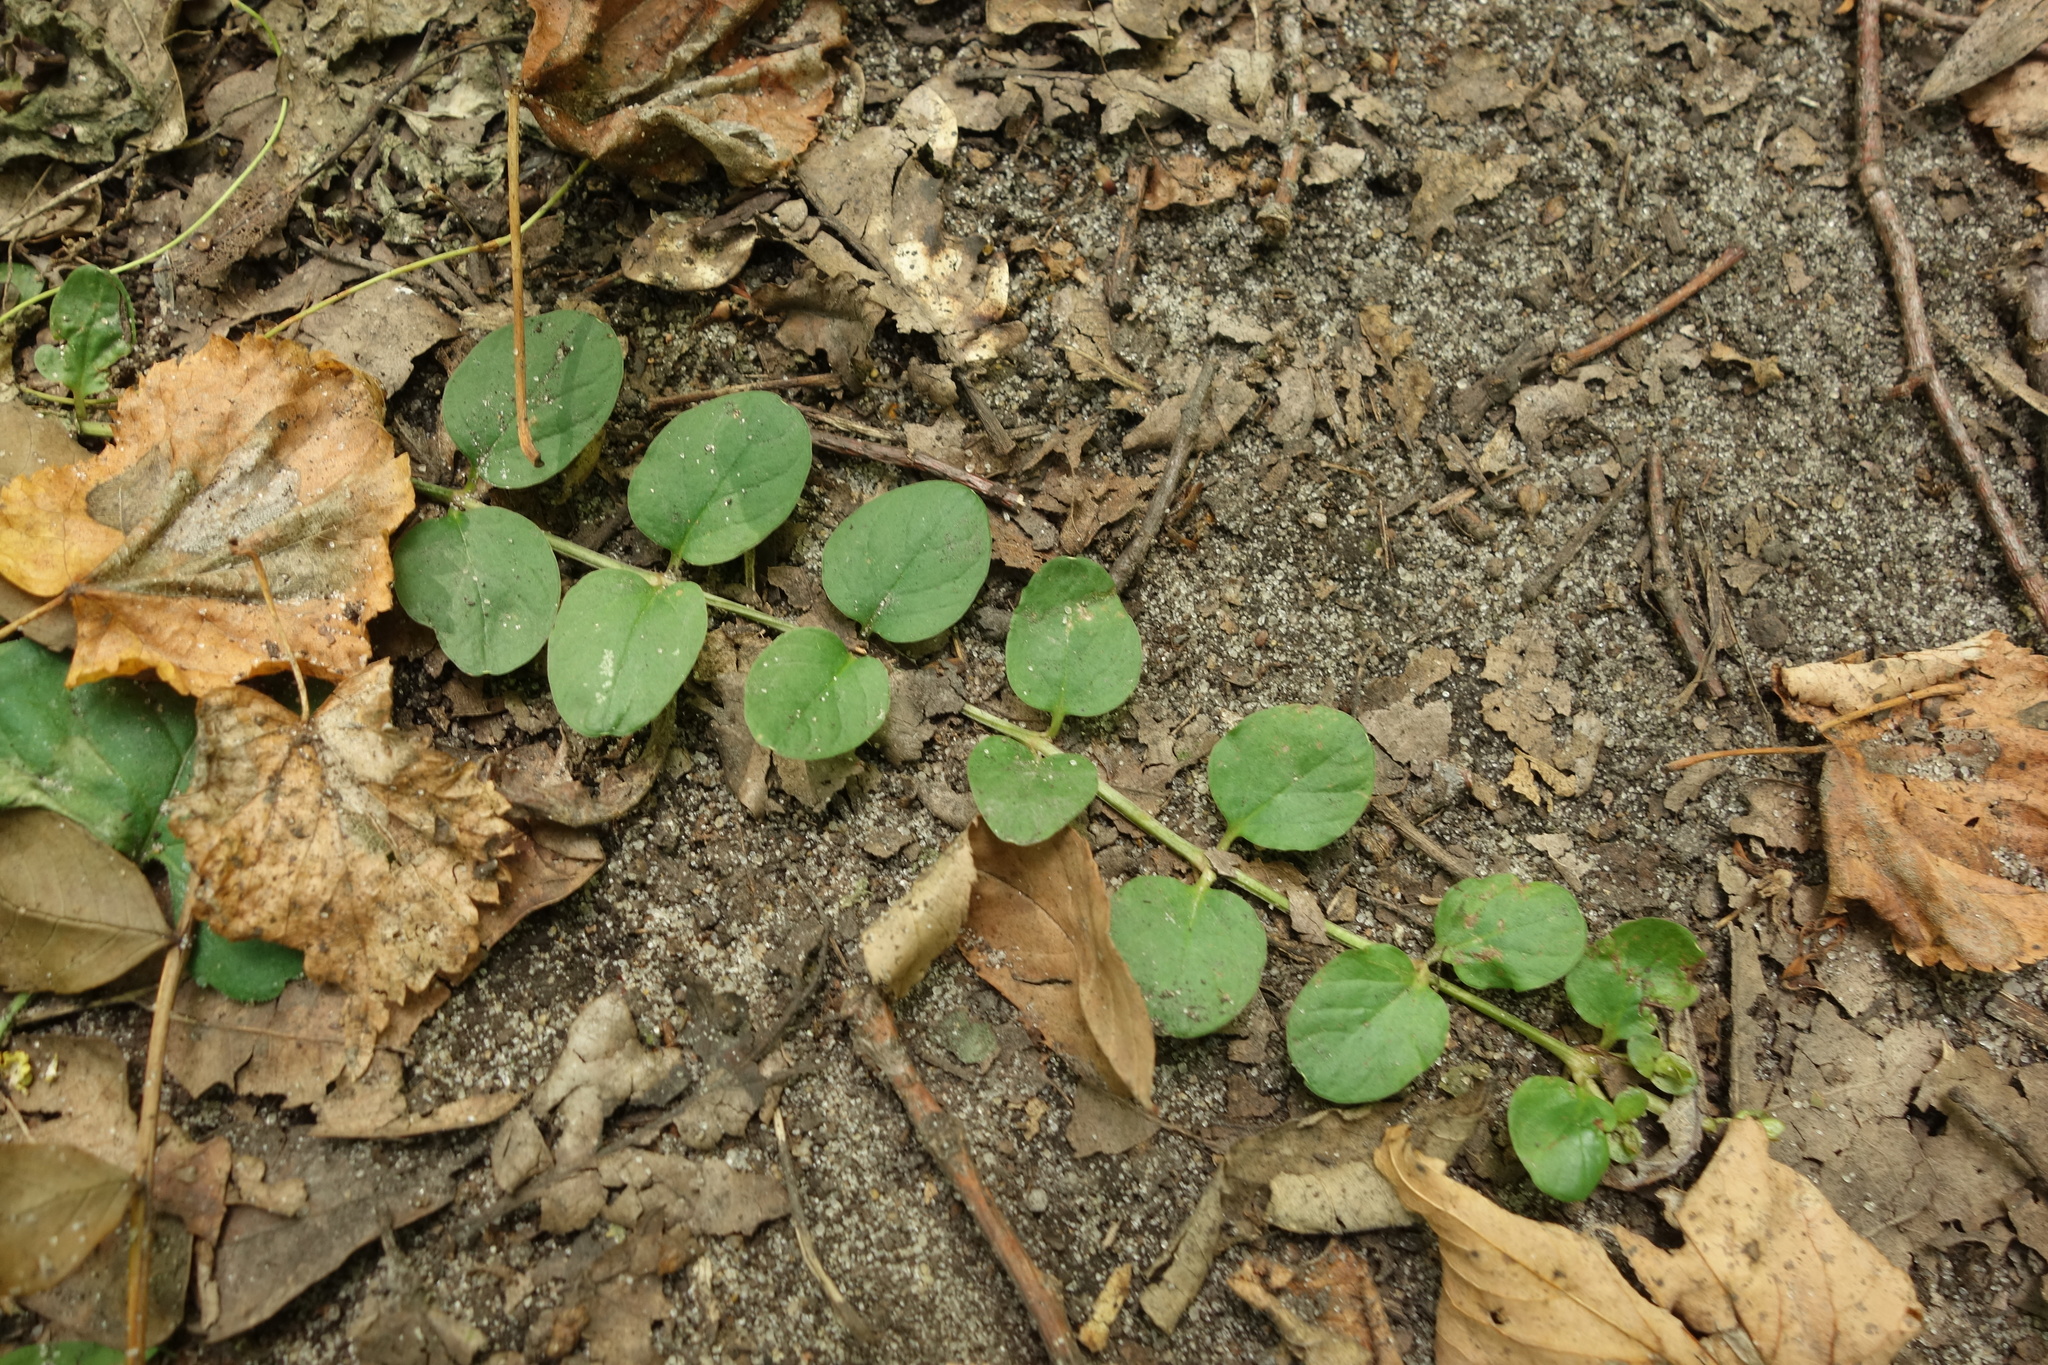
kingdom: Plantae
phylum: Tracheophyta
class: Magnoliopsida
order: Ericales
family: Primulaceae
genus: Lysimachia
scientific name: Lysimachia nummularia
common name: Moneywort
